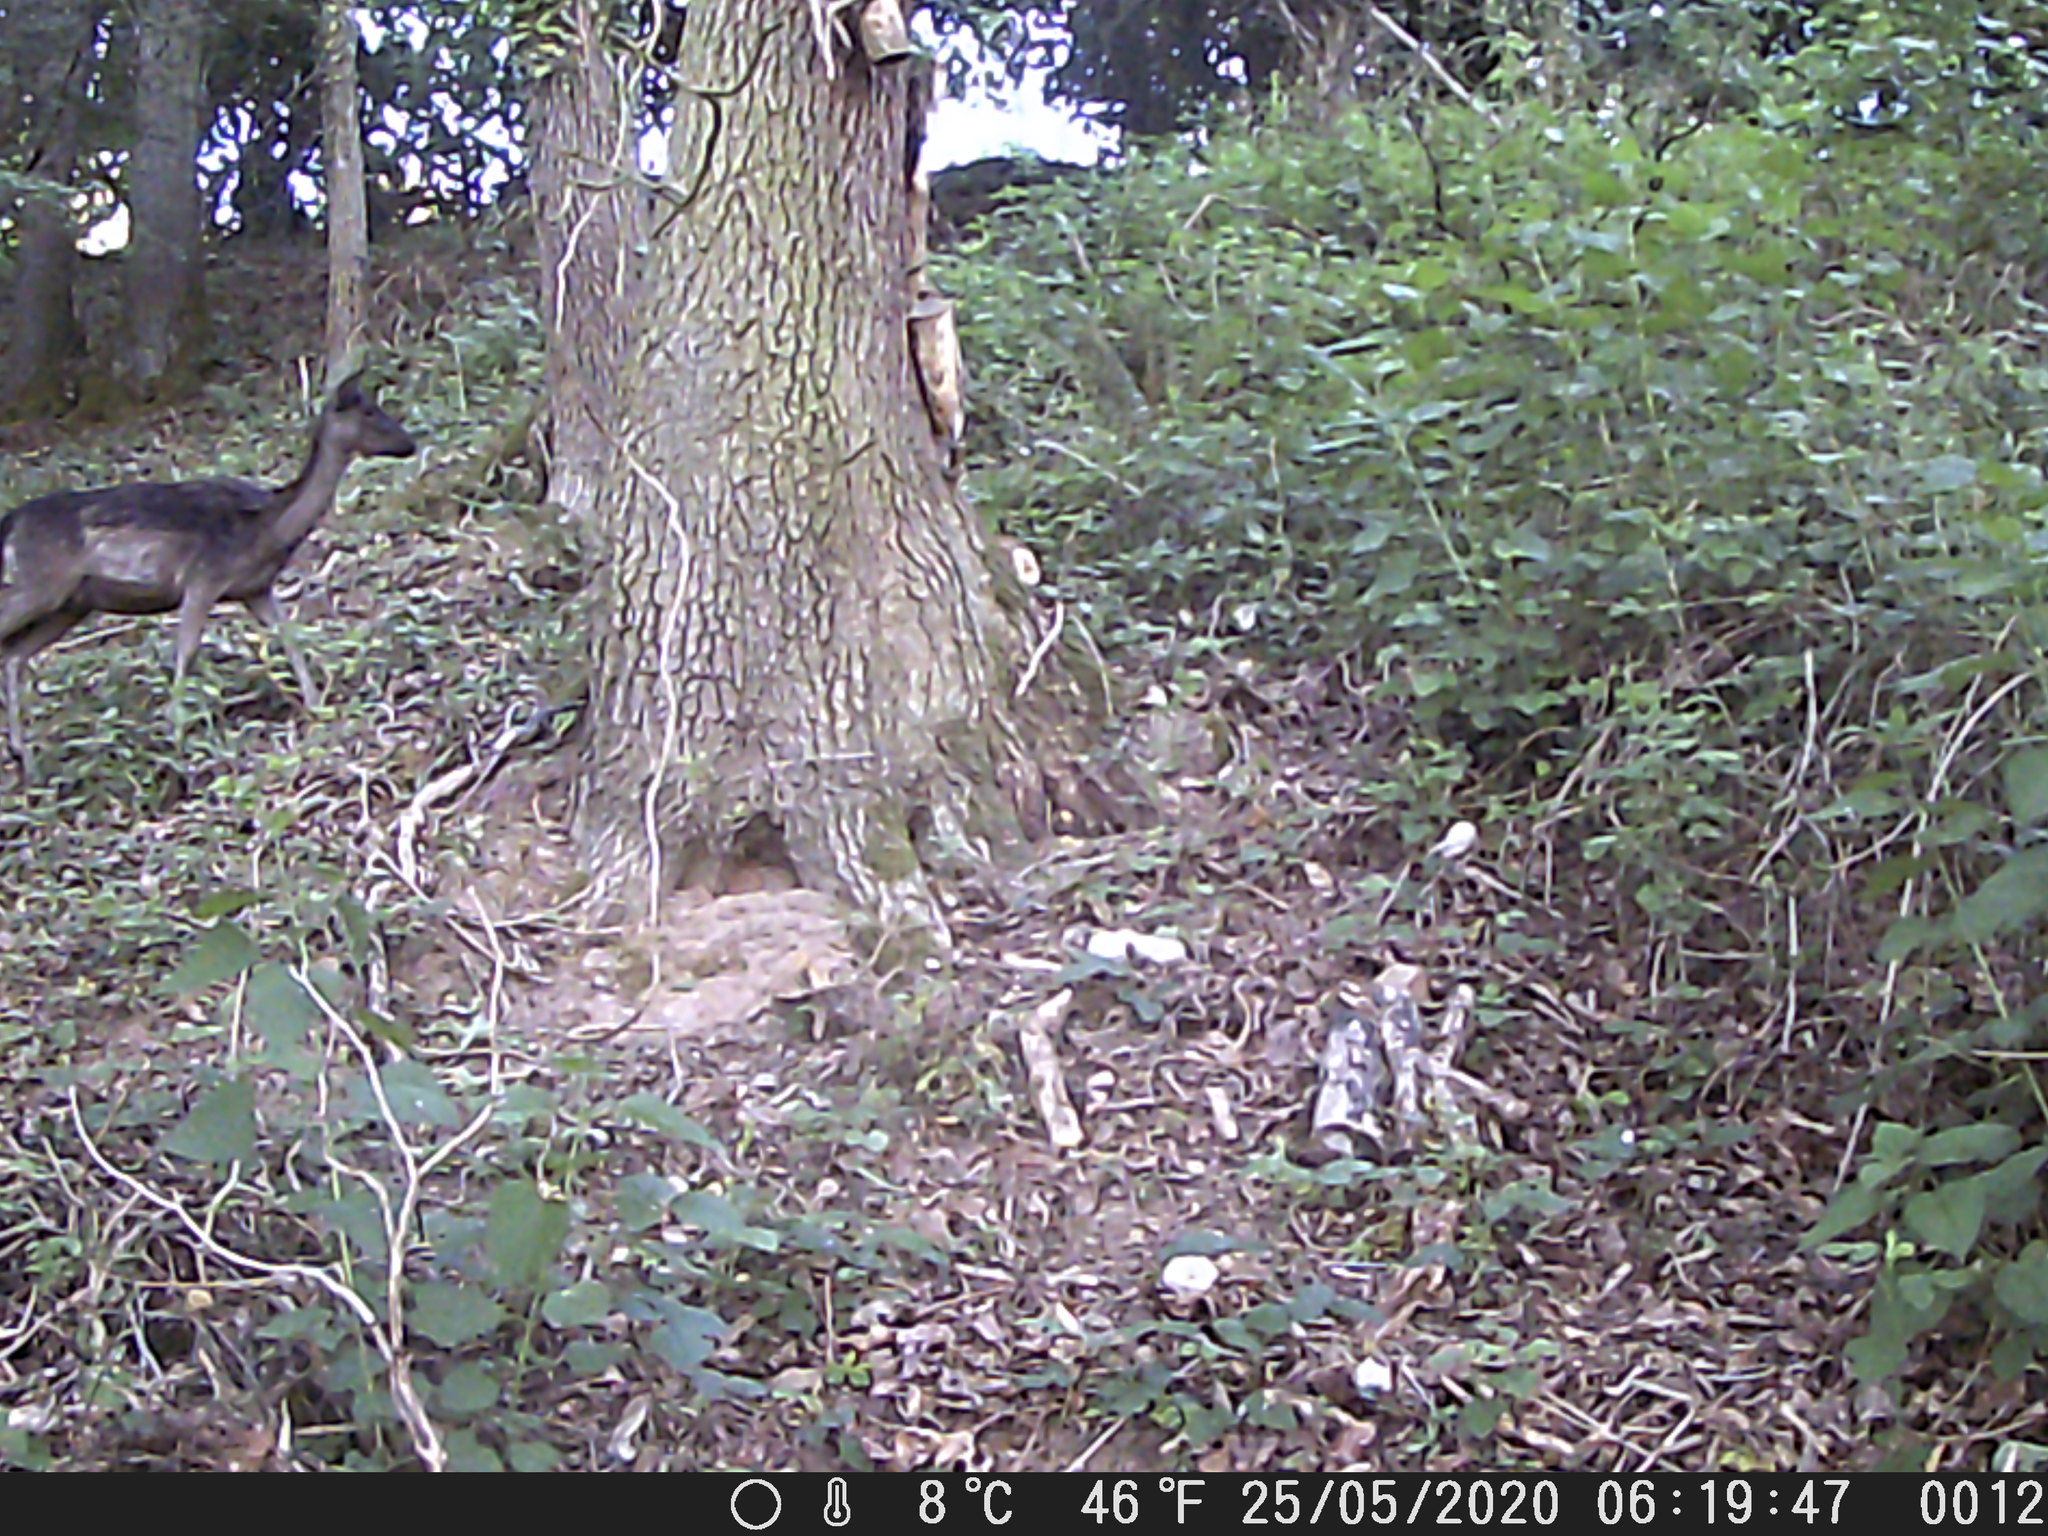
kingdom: Animalia
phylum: Chordata
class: Mammalia
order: Artiodactyla
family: Cervidae
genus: Dama
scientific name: Dama dama
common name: Fallow deer
